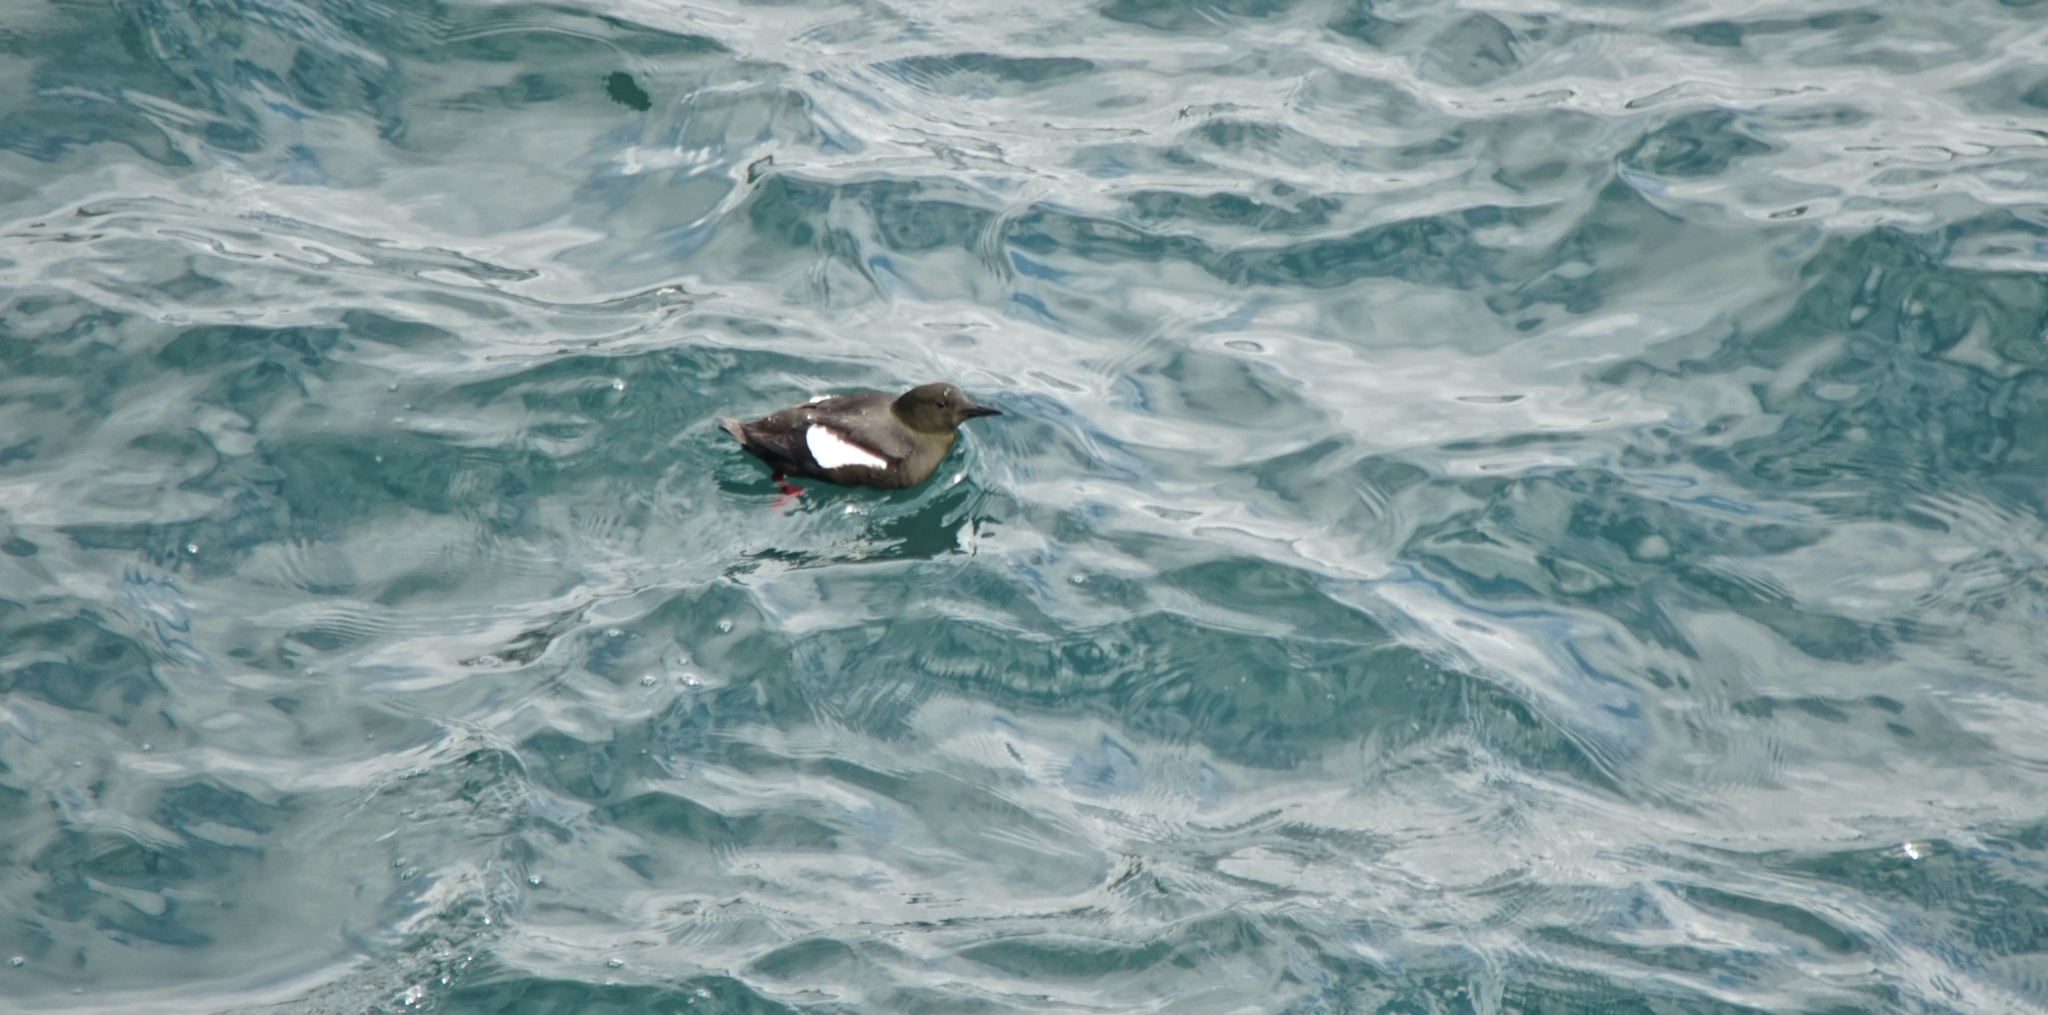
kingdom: Animalia
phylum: Chordata
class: Aves
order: Charadriiformes
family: Alcidae
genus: Cepphus
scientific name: Cepphus grylle
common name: Black guillemot
